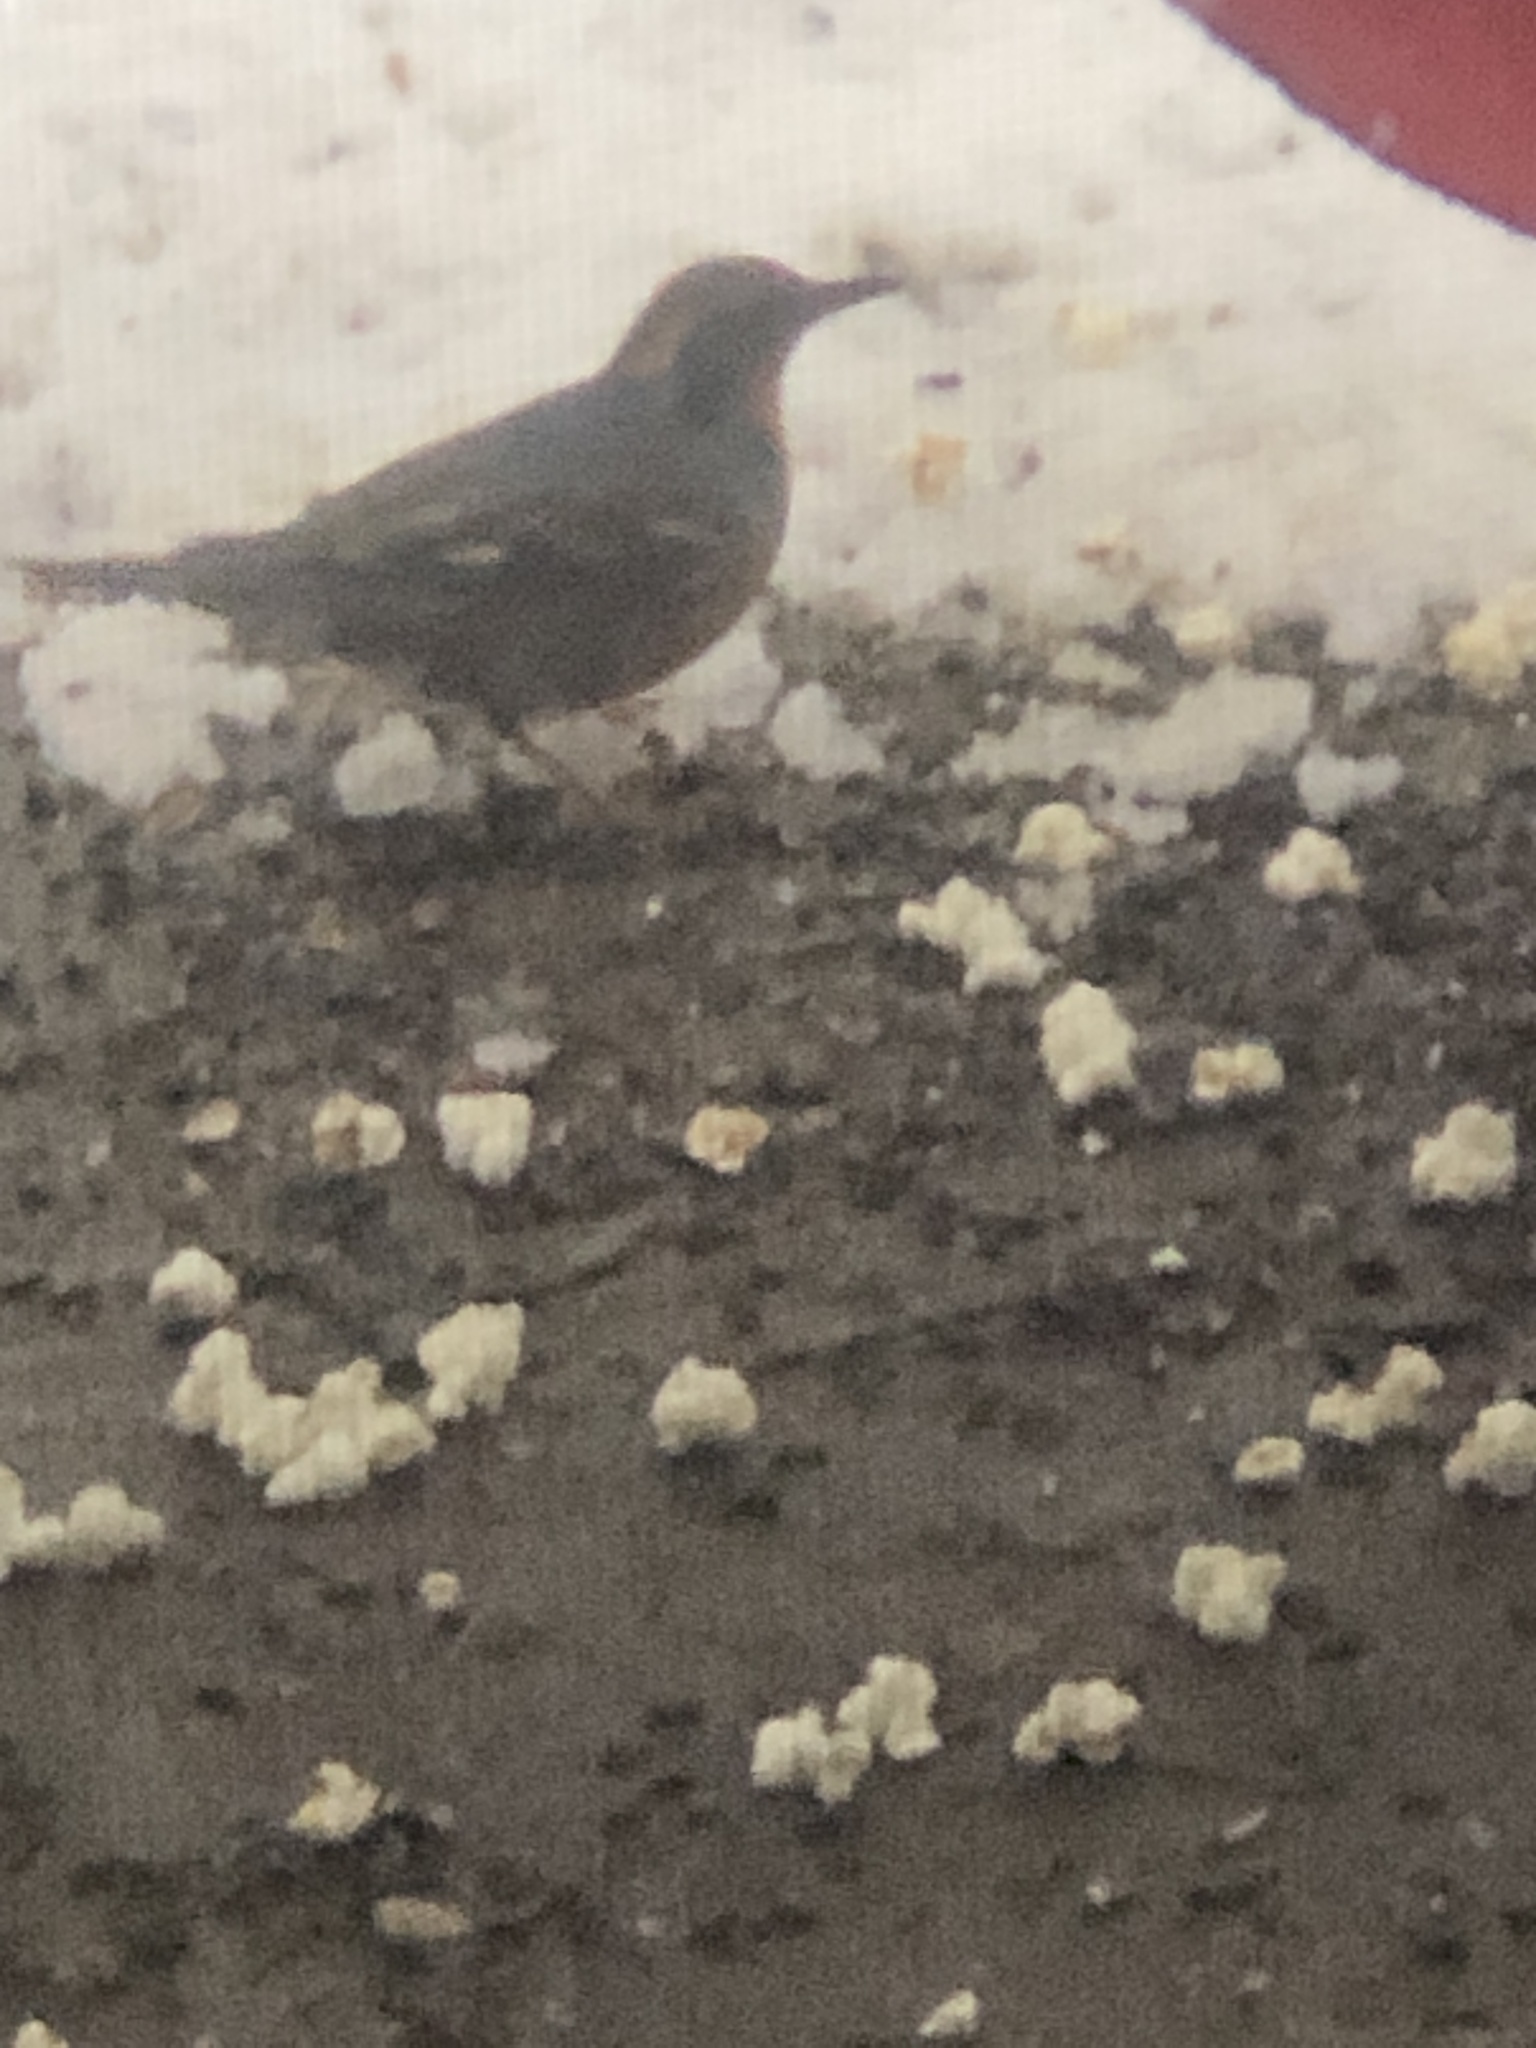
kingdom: Animalia
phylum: Chordata
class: Aves
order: Passeriformes
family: Turdidae
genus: Ixoreus
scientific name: Ixoreus naevius
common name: Varied thrush
